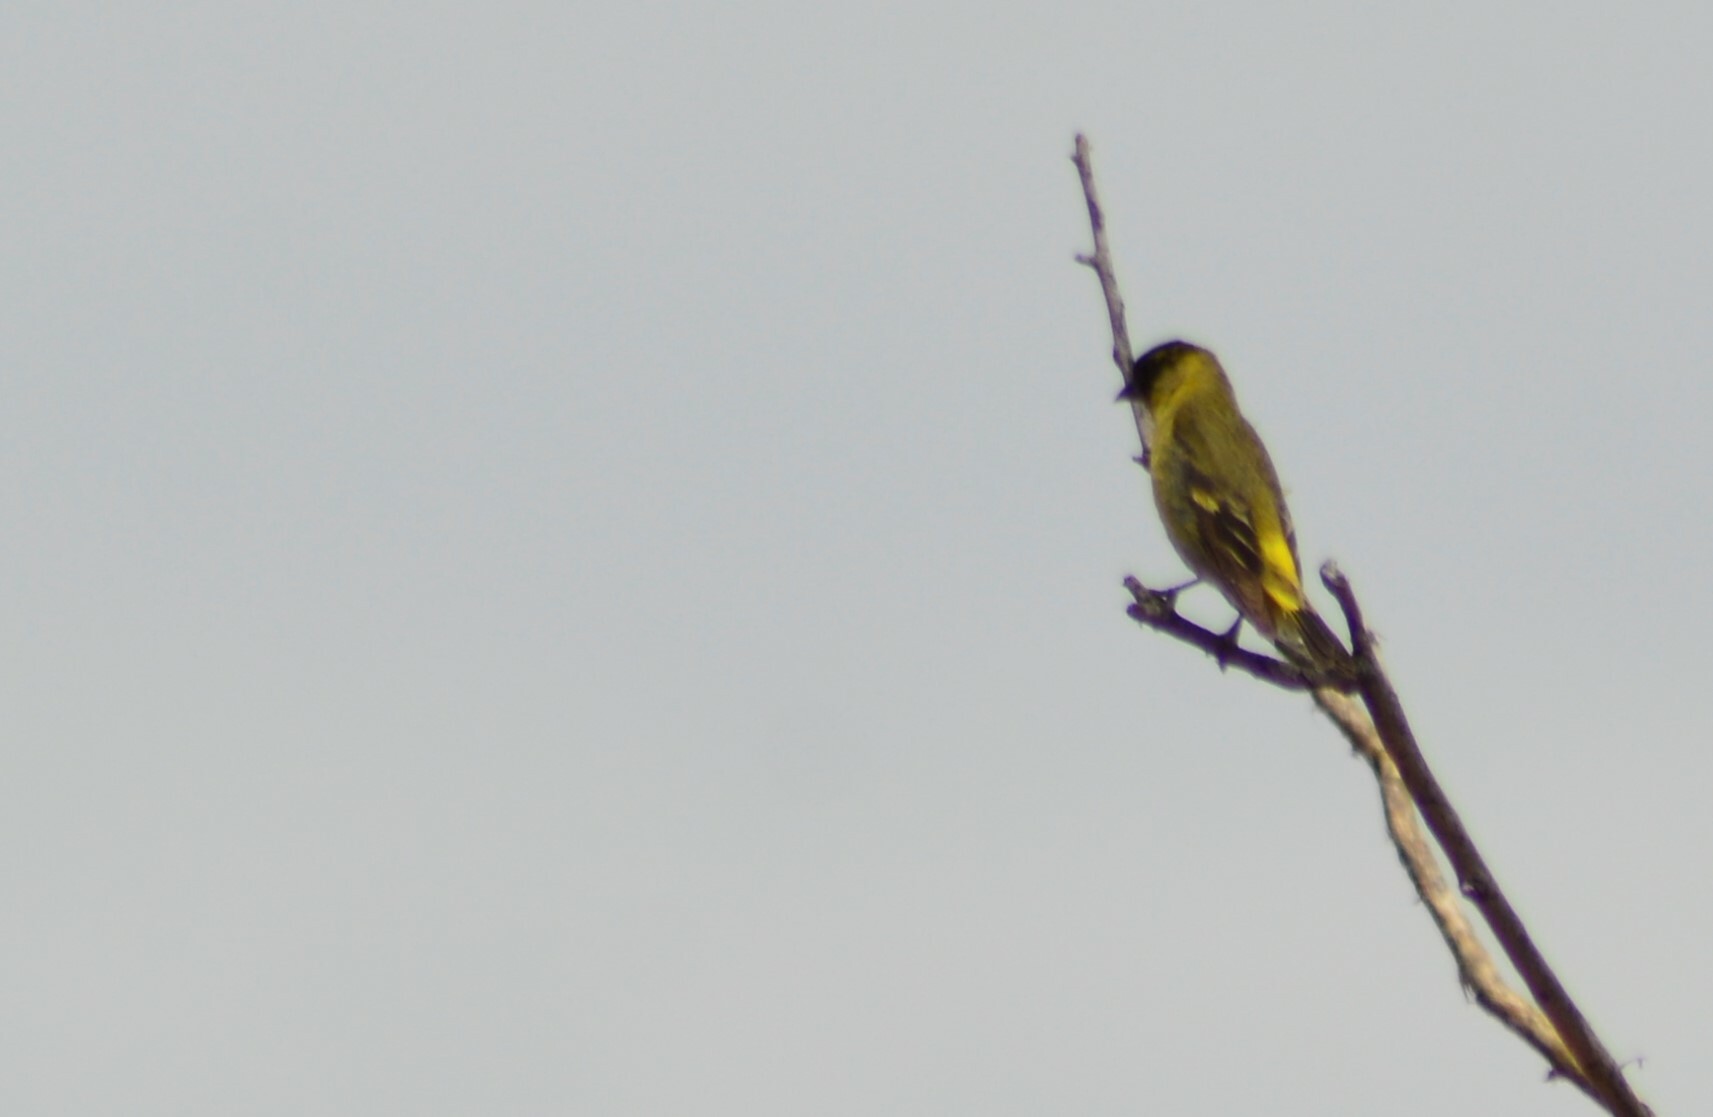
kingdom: Animalia
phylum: Chordata
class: Aves
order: Passeriformes
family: Fringillidae
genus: Spinus
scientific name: Spinus magellanicus
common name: Hooded siskin
